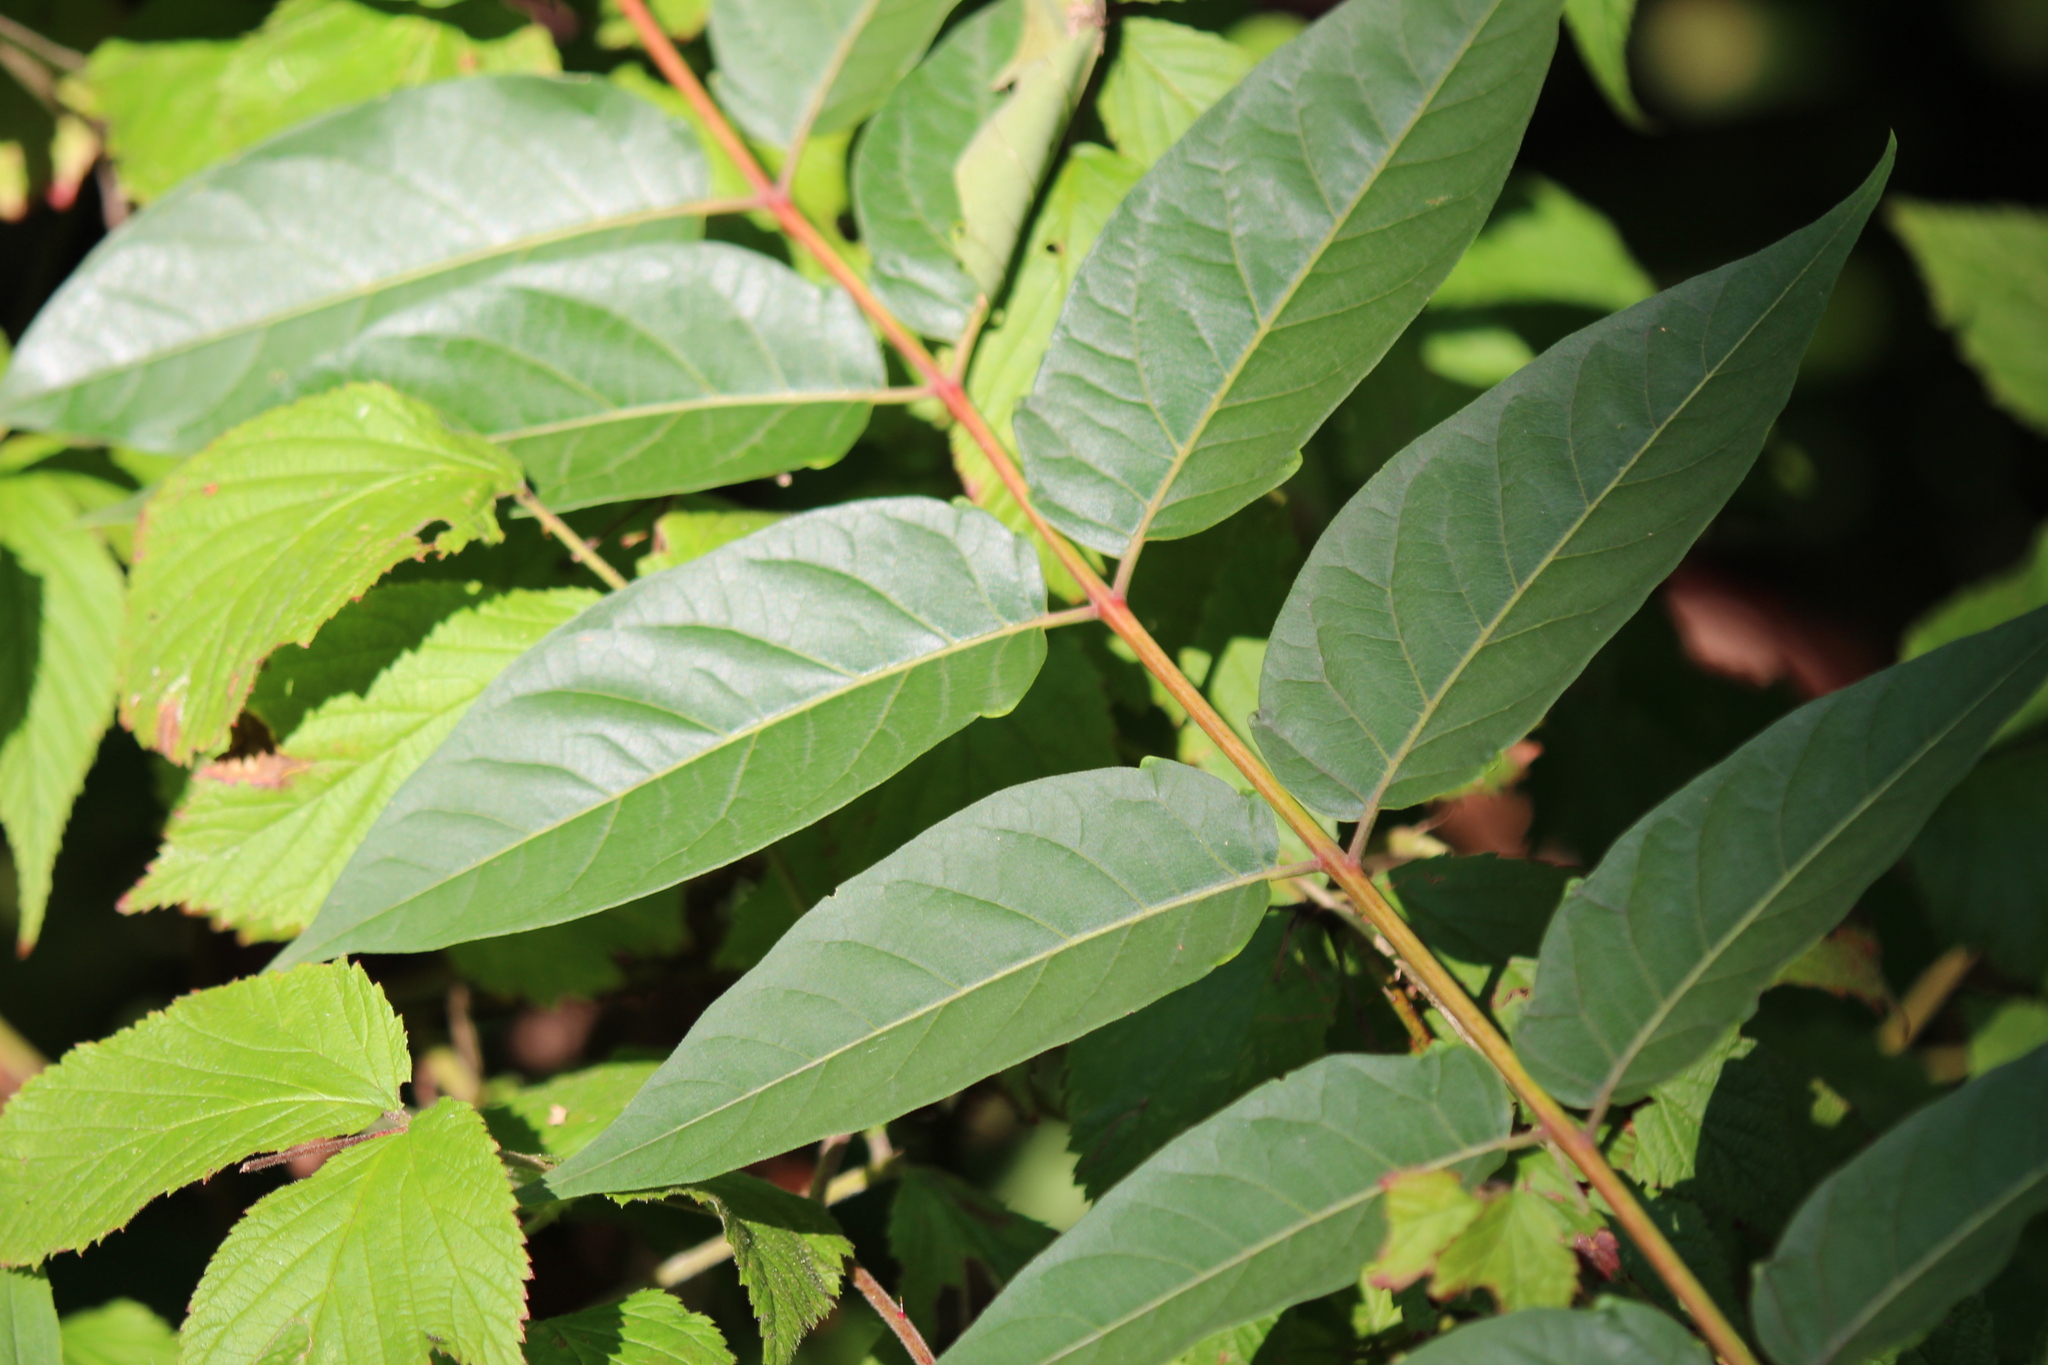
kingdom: Plantae
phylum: Tracheophyta
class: Magnoliopsida
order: Sapindales
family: Simaroubaceae
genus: Ailanthus
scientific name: Ailanthus altissima
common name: Tree-of-heaven
